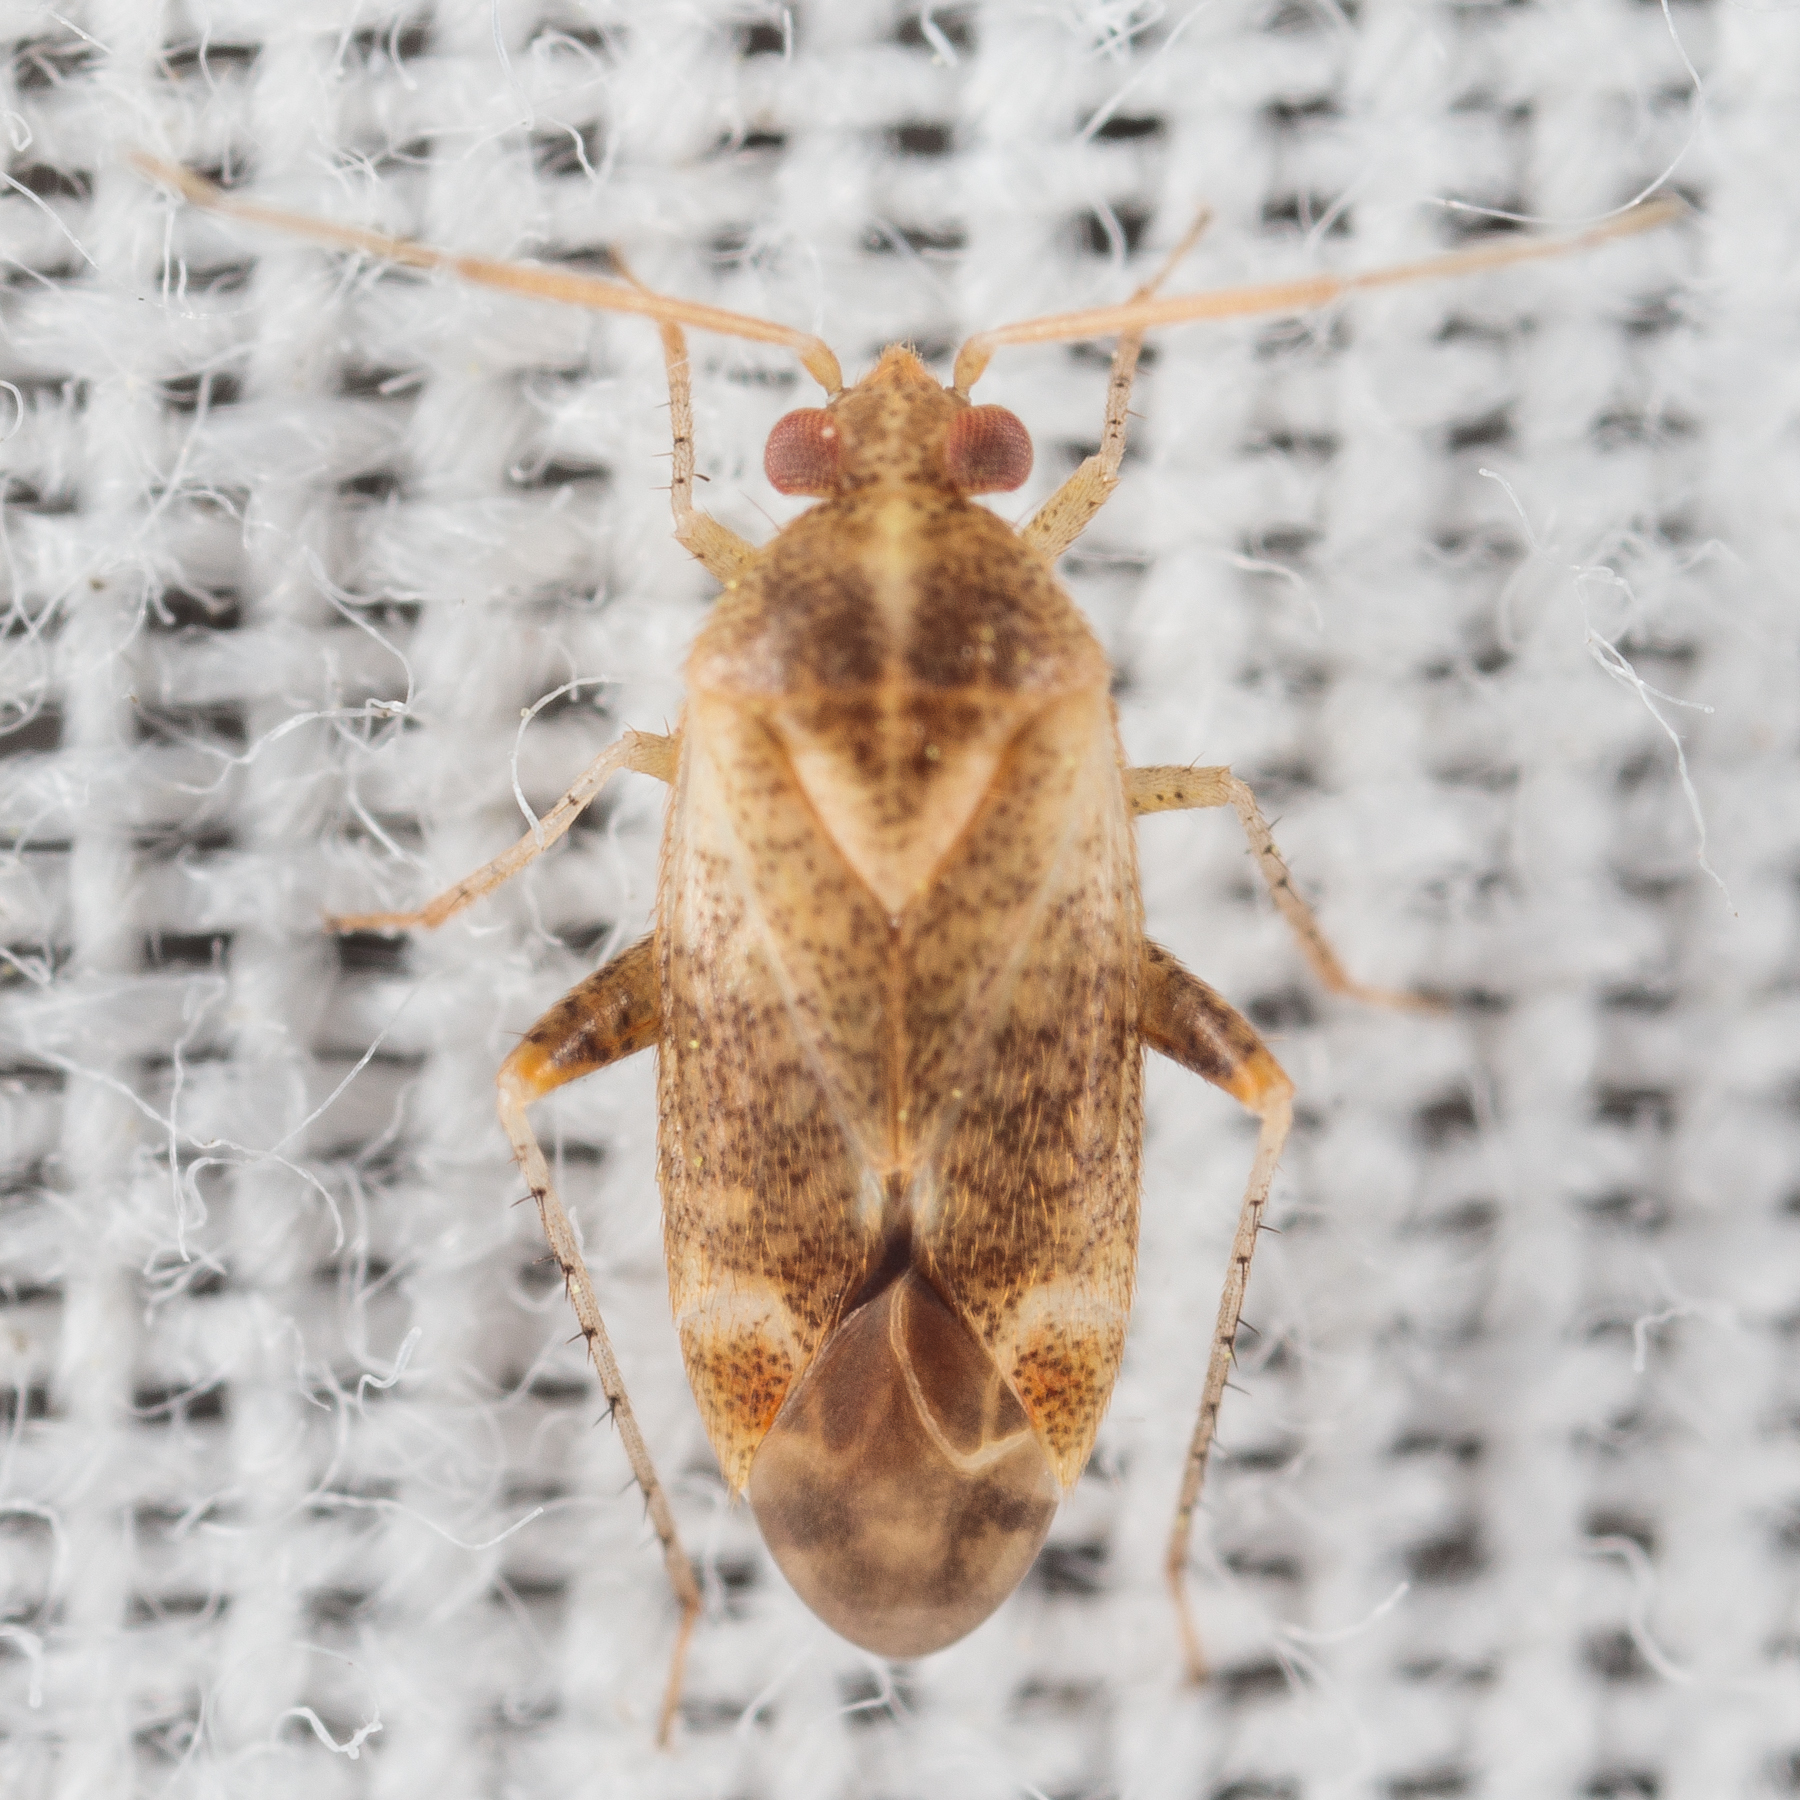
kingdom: Animalia
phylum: Arthropoda
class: Insecta
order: Hemiptera
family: Miridae
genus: Hamatophylus
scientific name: Hamatophylus guttulosus
